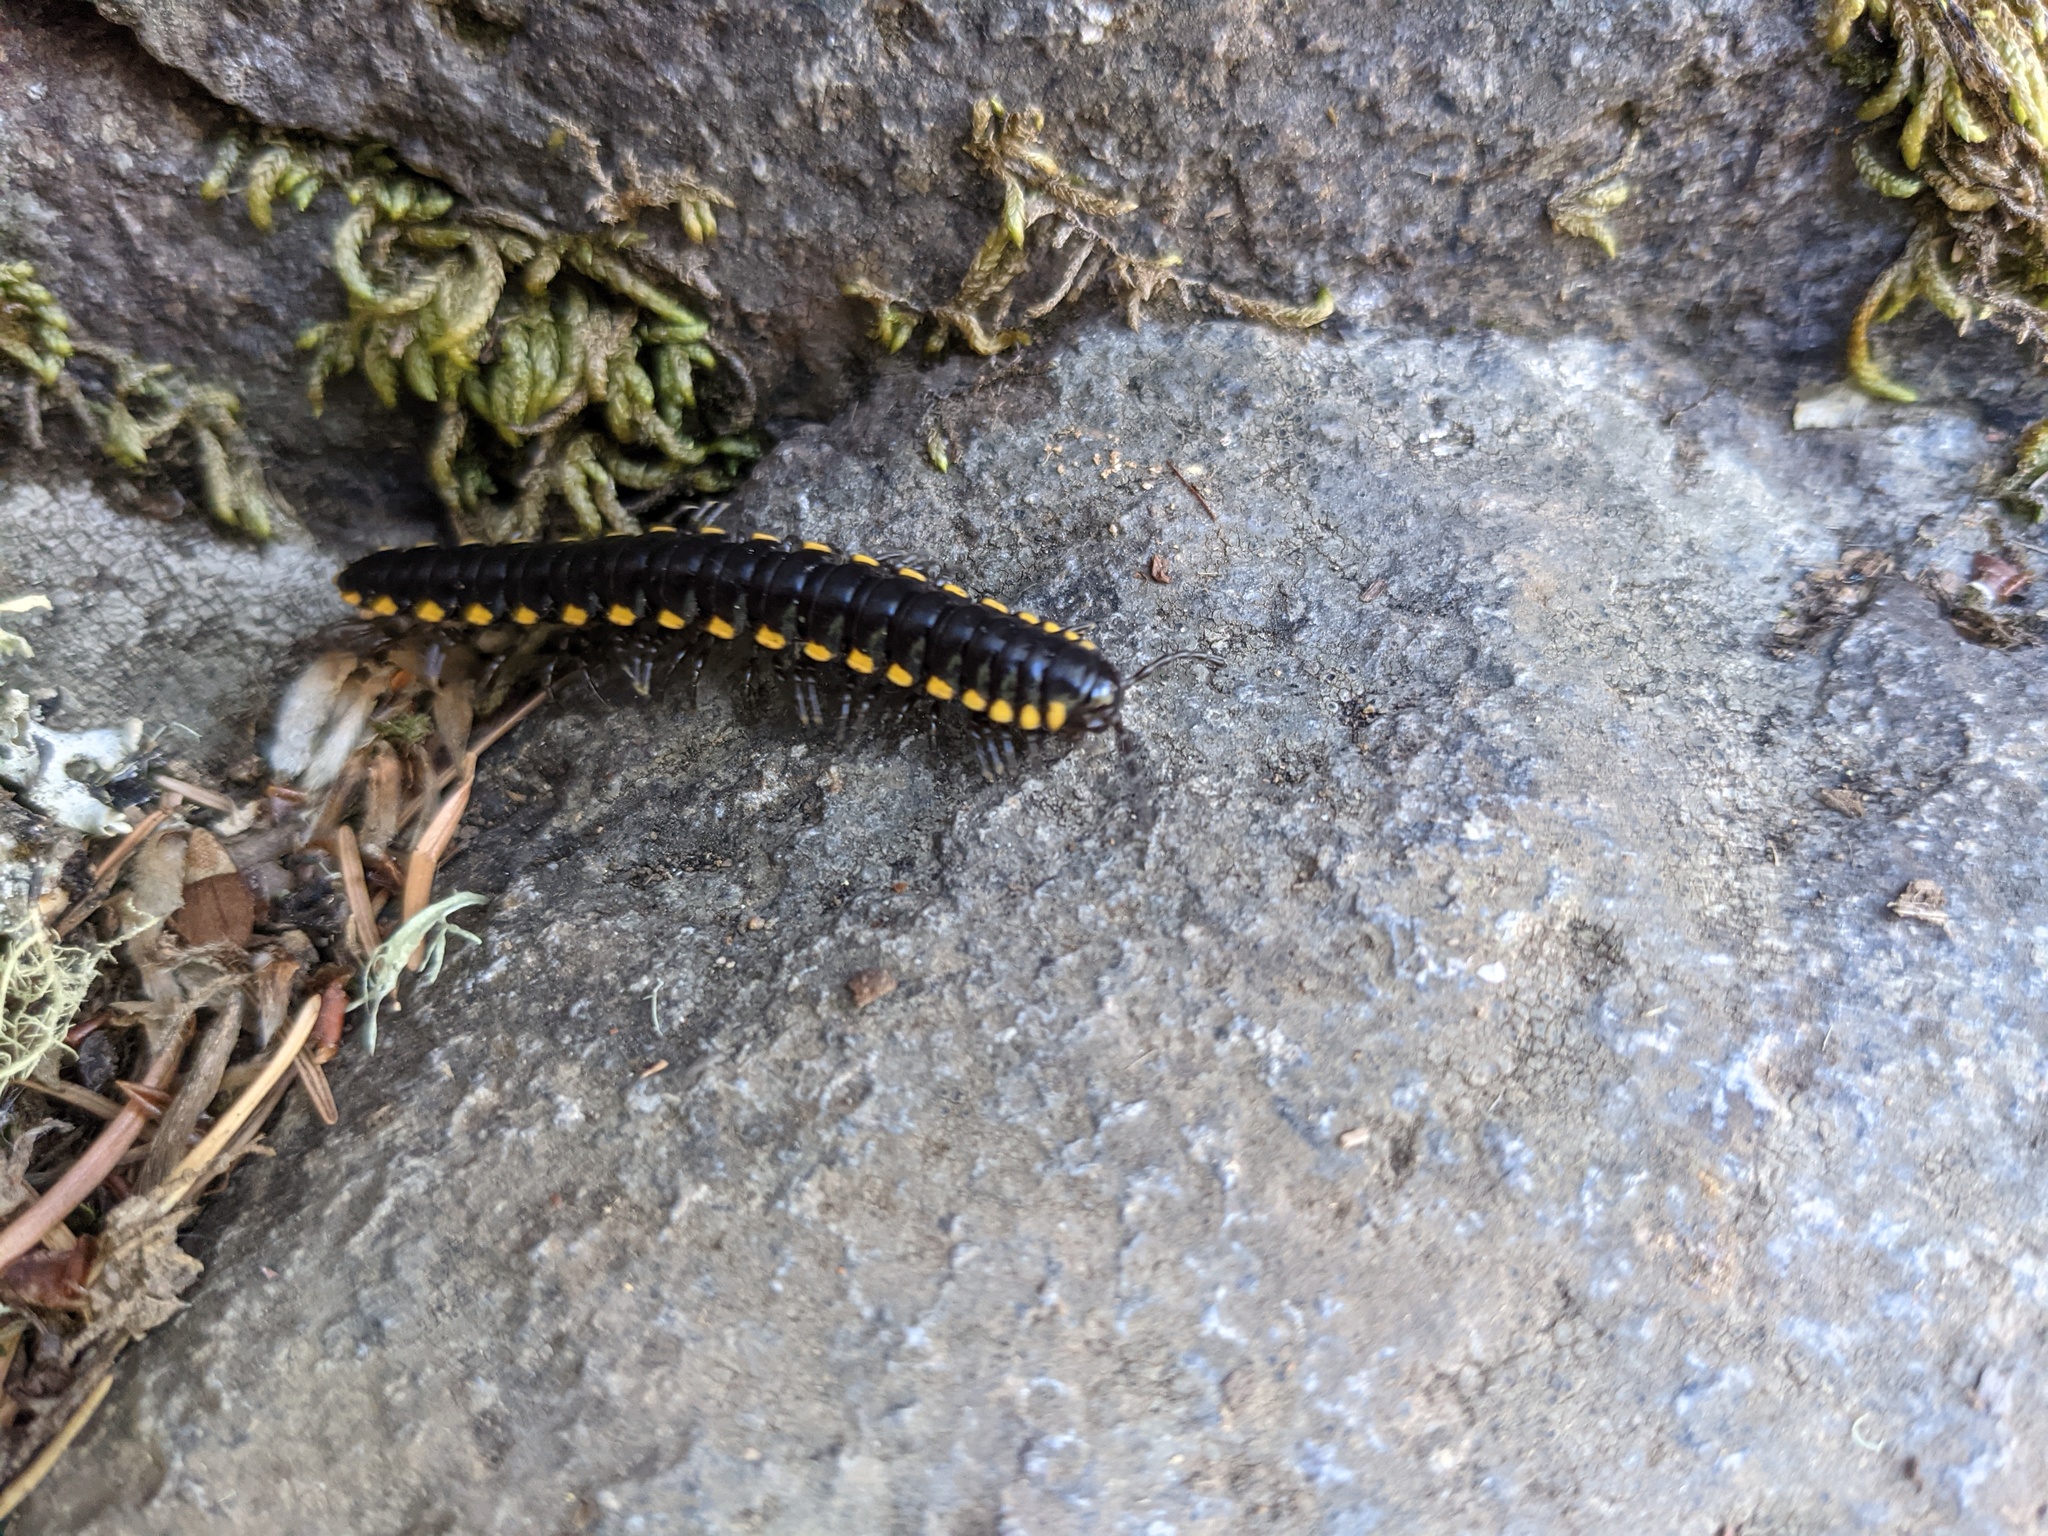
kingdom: Animalia
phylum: Arthropoda
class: Diplopoda
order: Polydesmida
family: Xystodesmidae
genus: Harpaphe
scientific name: Harpaphe haydeniana
